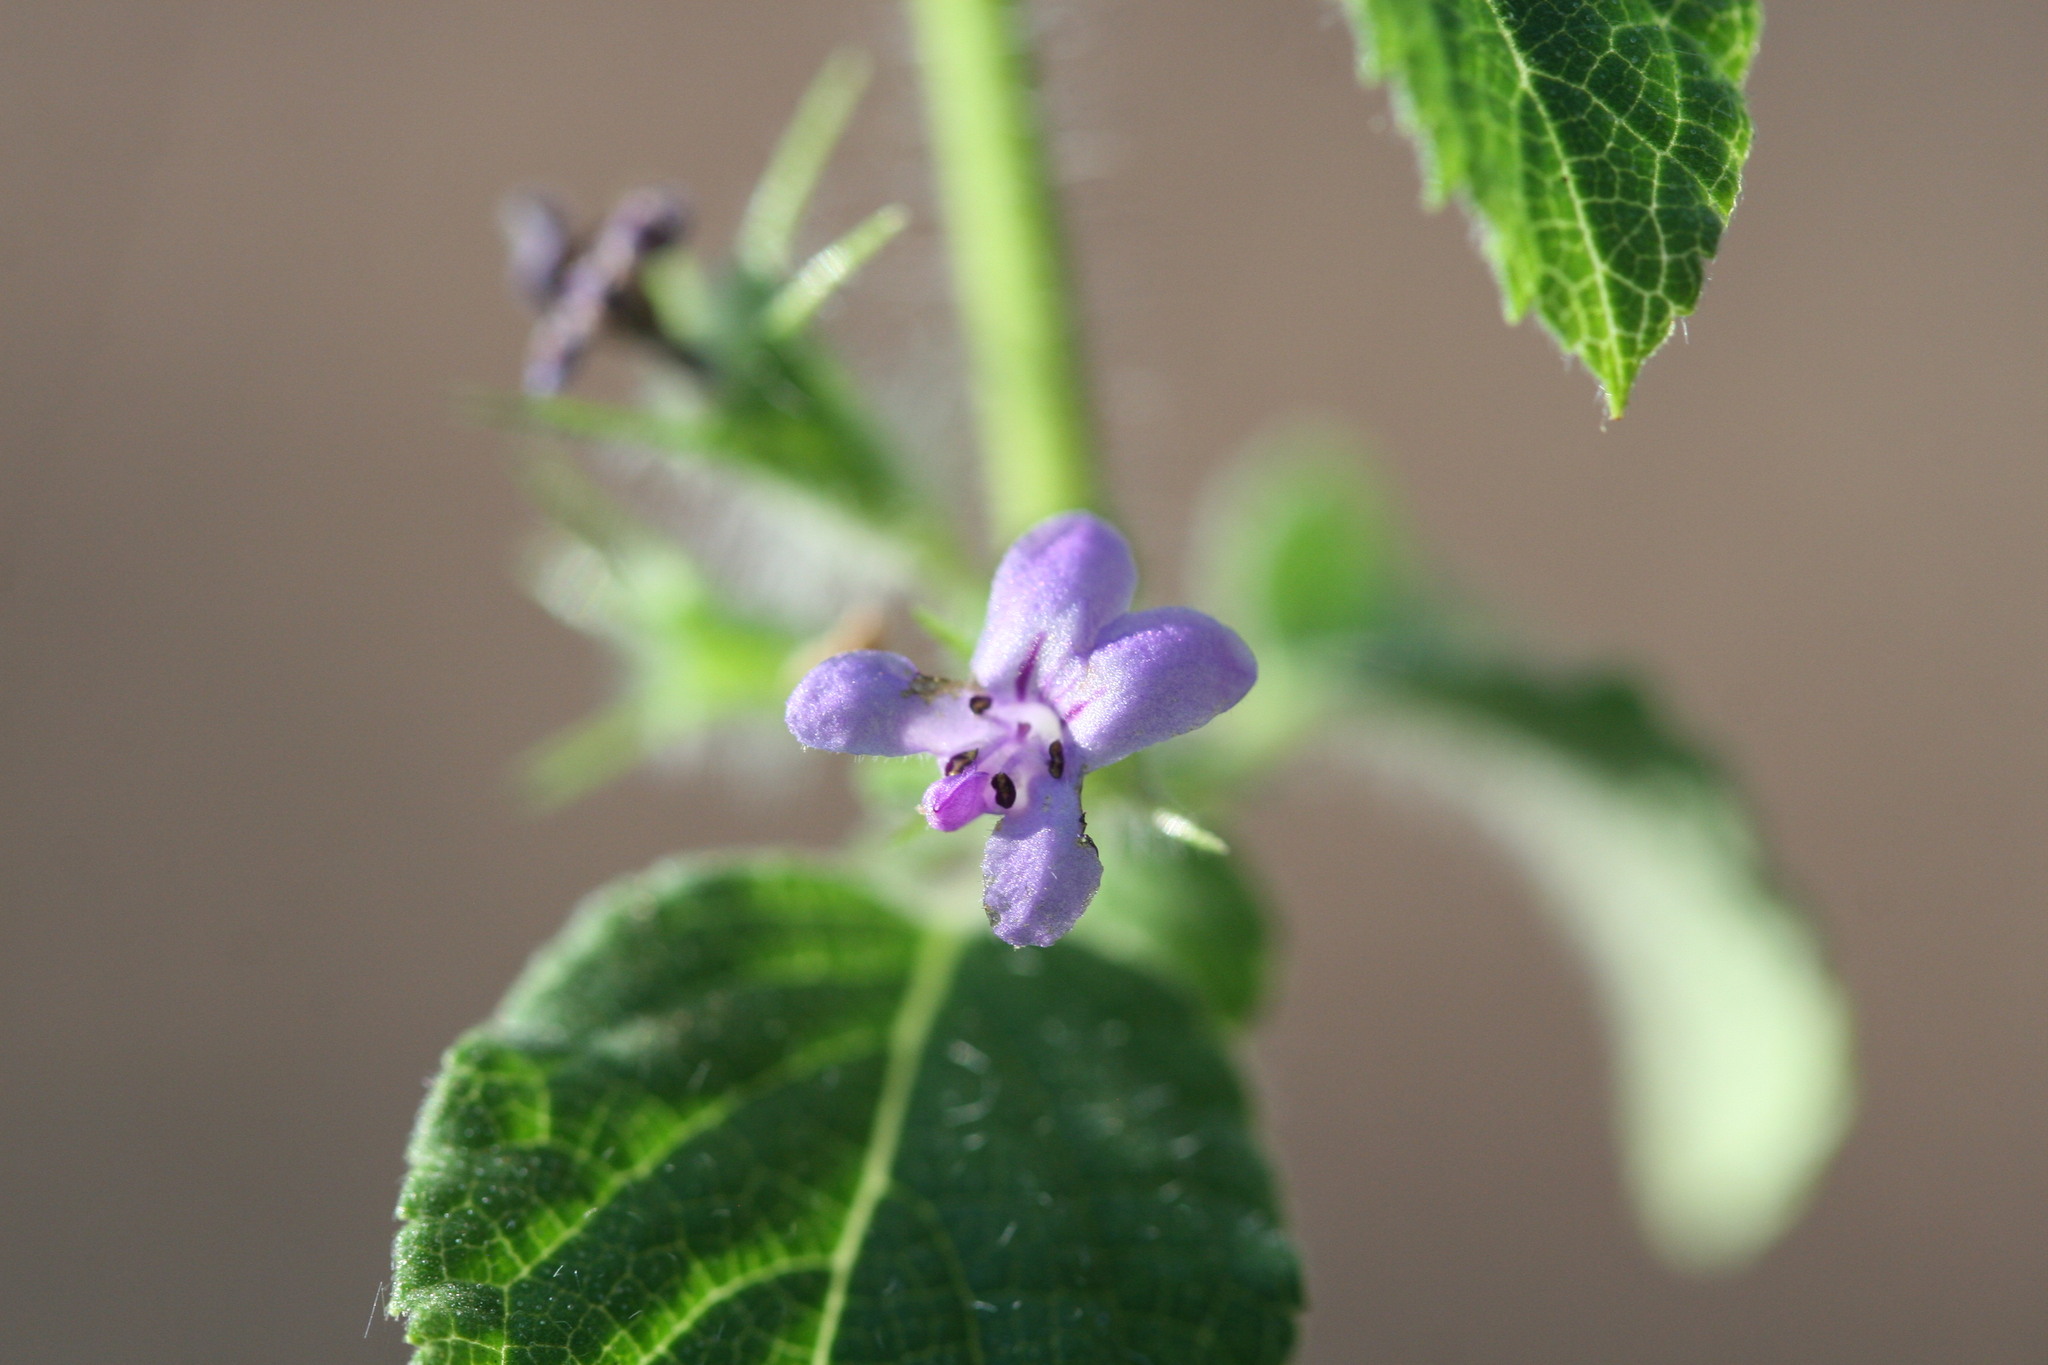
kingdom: Plantae
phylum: Tracheophyta
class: Magnoliopsida
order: Lamiales
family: Lamiaceae
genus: Mesosphaerum
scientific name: Mesosphaerum suaveolens
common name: Pignut
